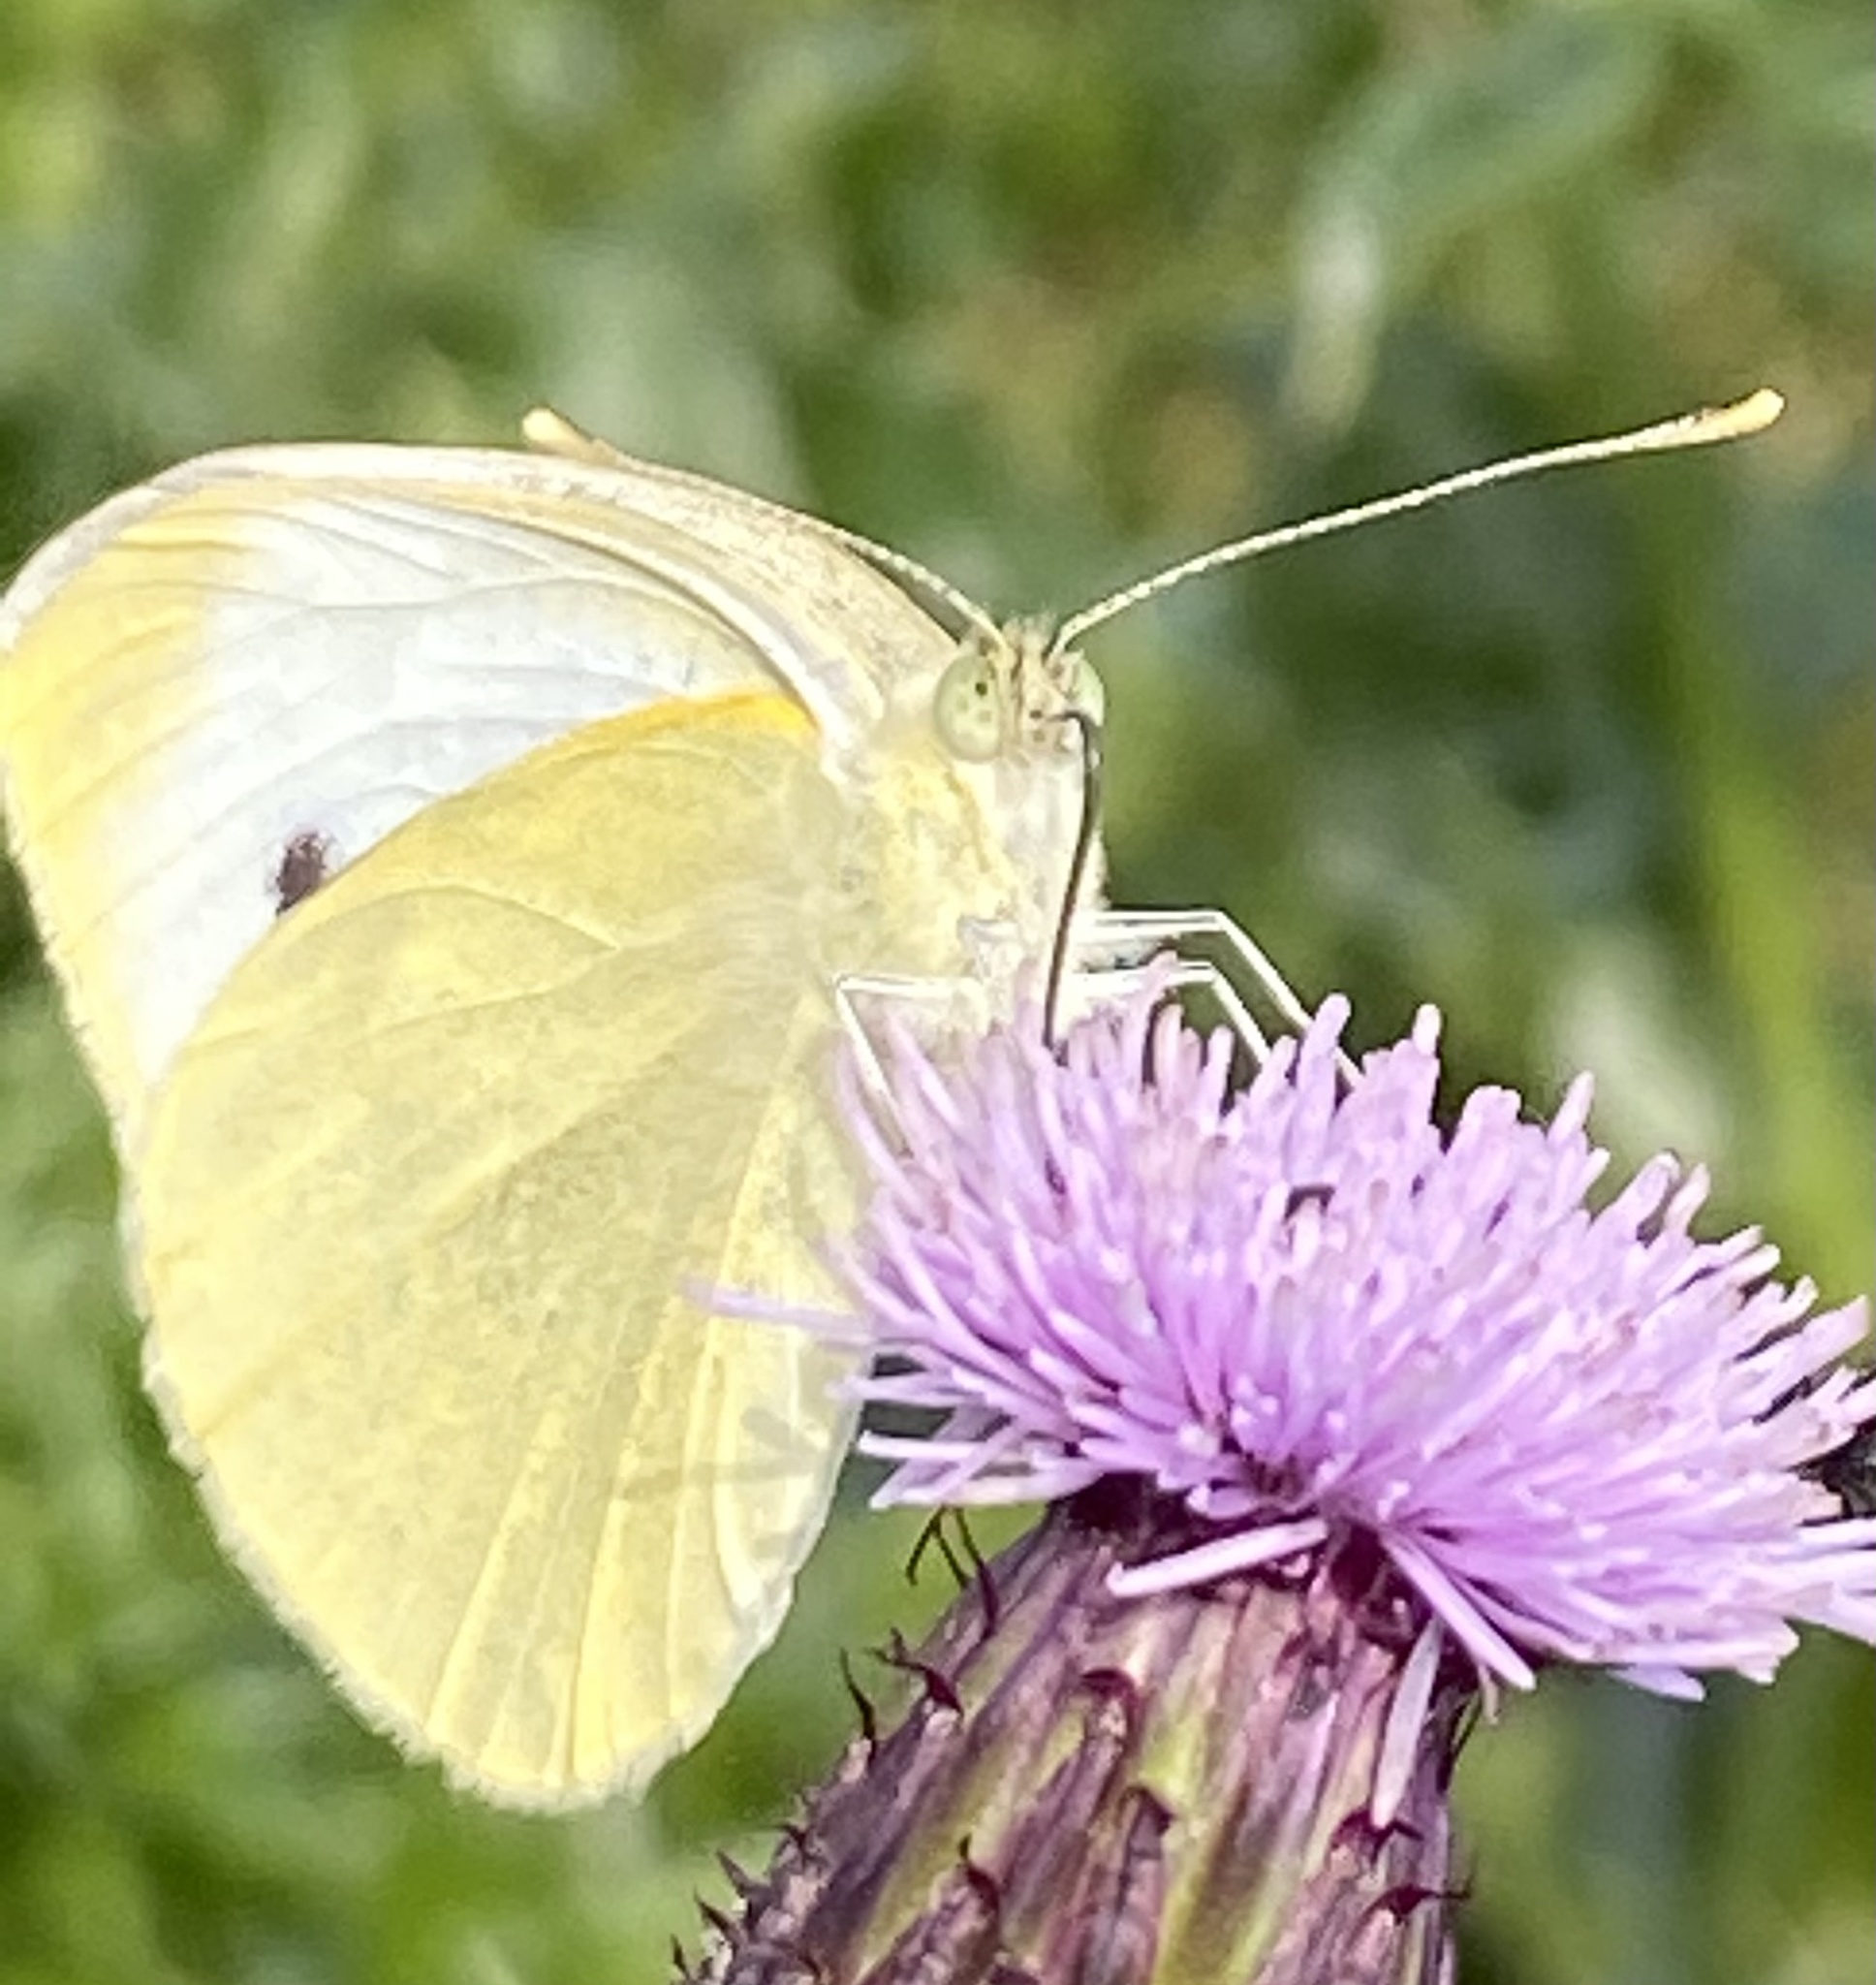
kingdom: Animalia
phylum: Arthropoda
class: Insecta
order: Lepidoptera
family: Pieridae
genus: Pieris
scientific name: Pieris rapae
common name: Small white
